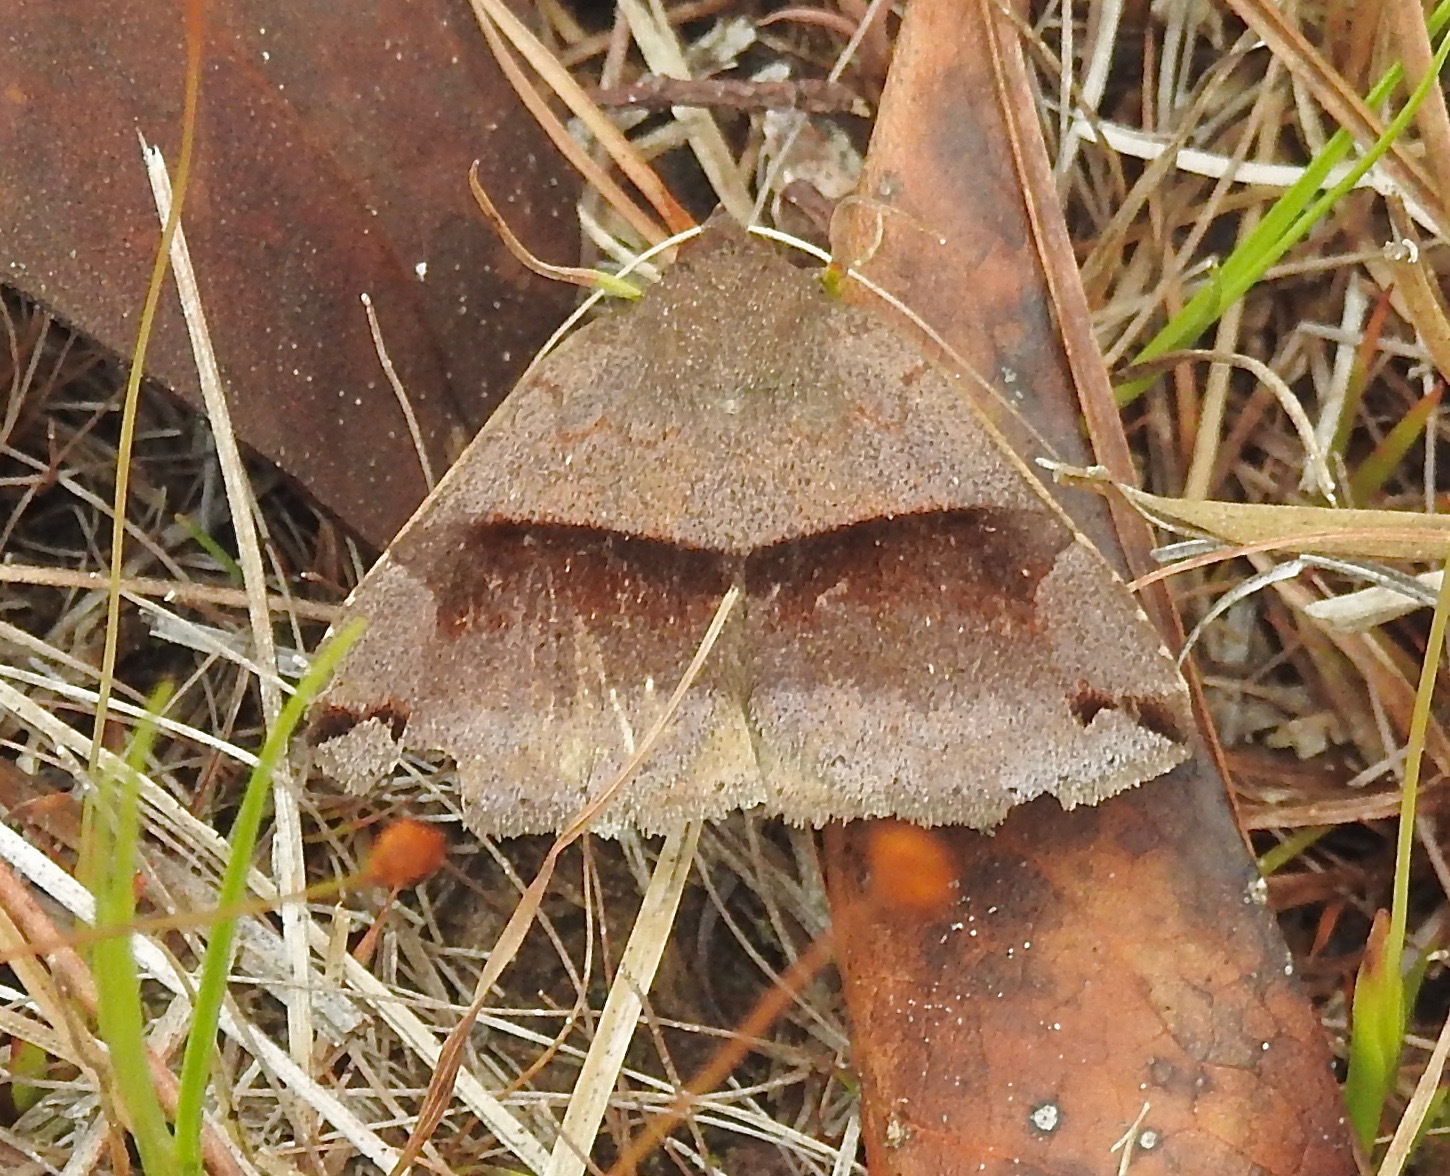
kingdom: Animalia
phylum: Arthropoda
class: Insecta
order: Lepidoptera
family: Erebidae
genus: Gondysia
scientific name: Gondysia similis
